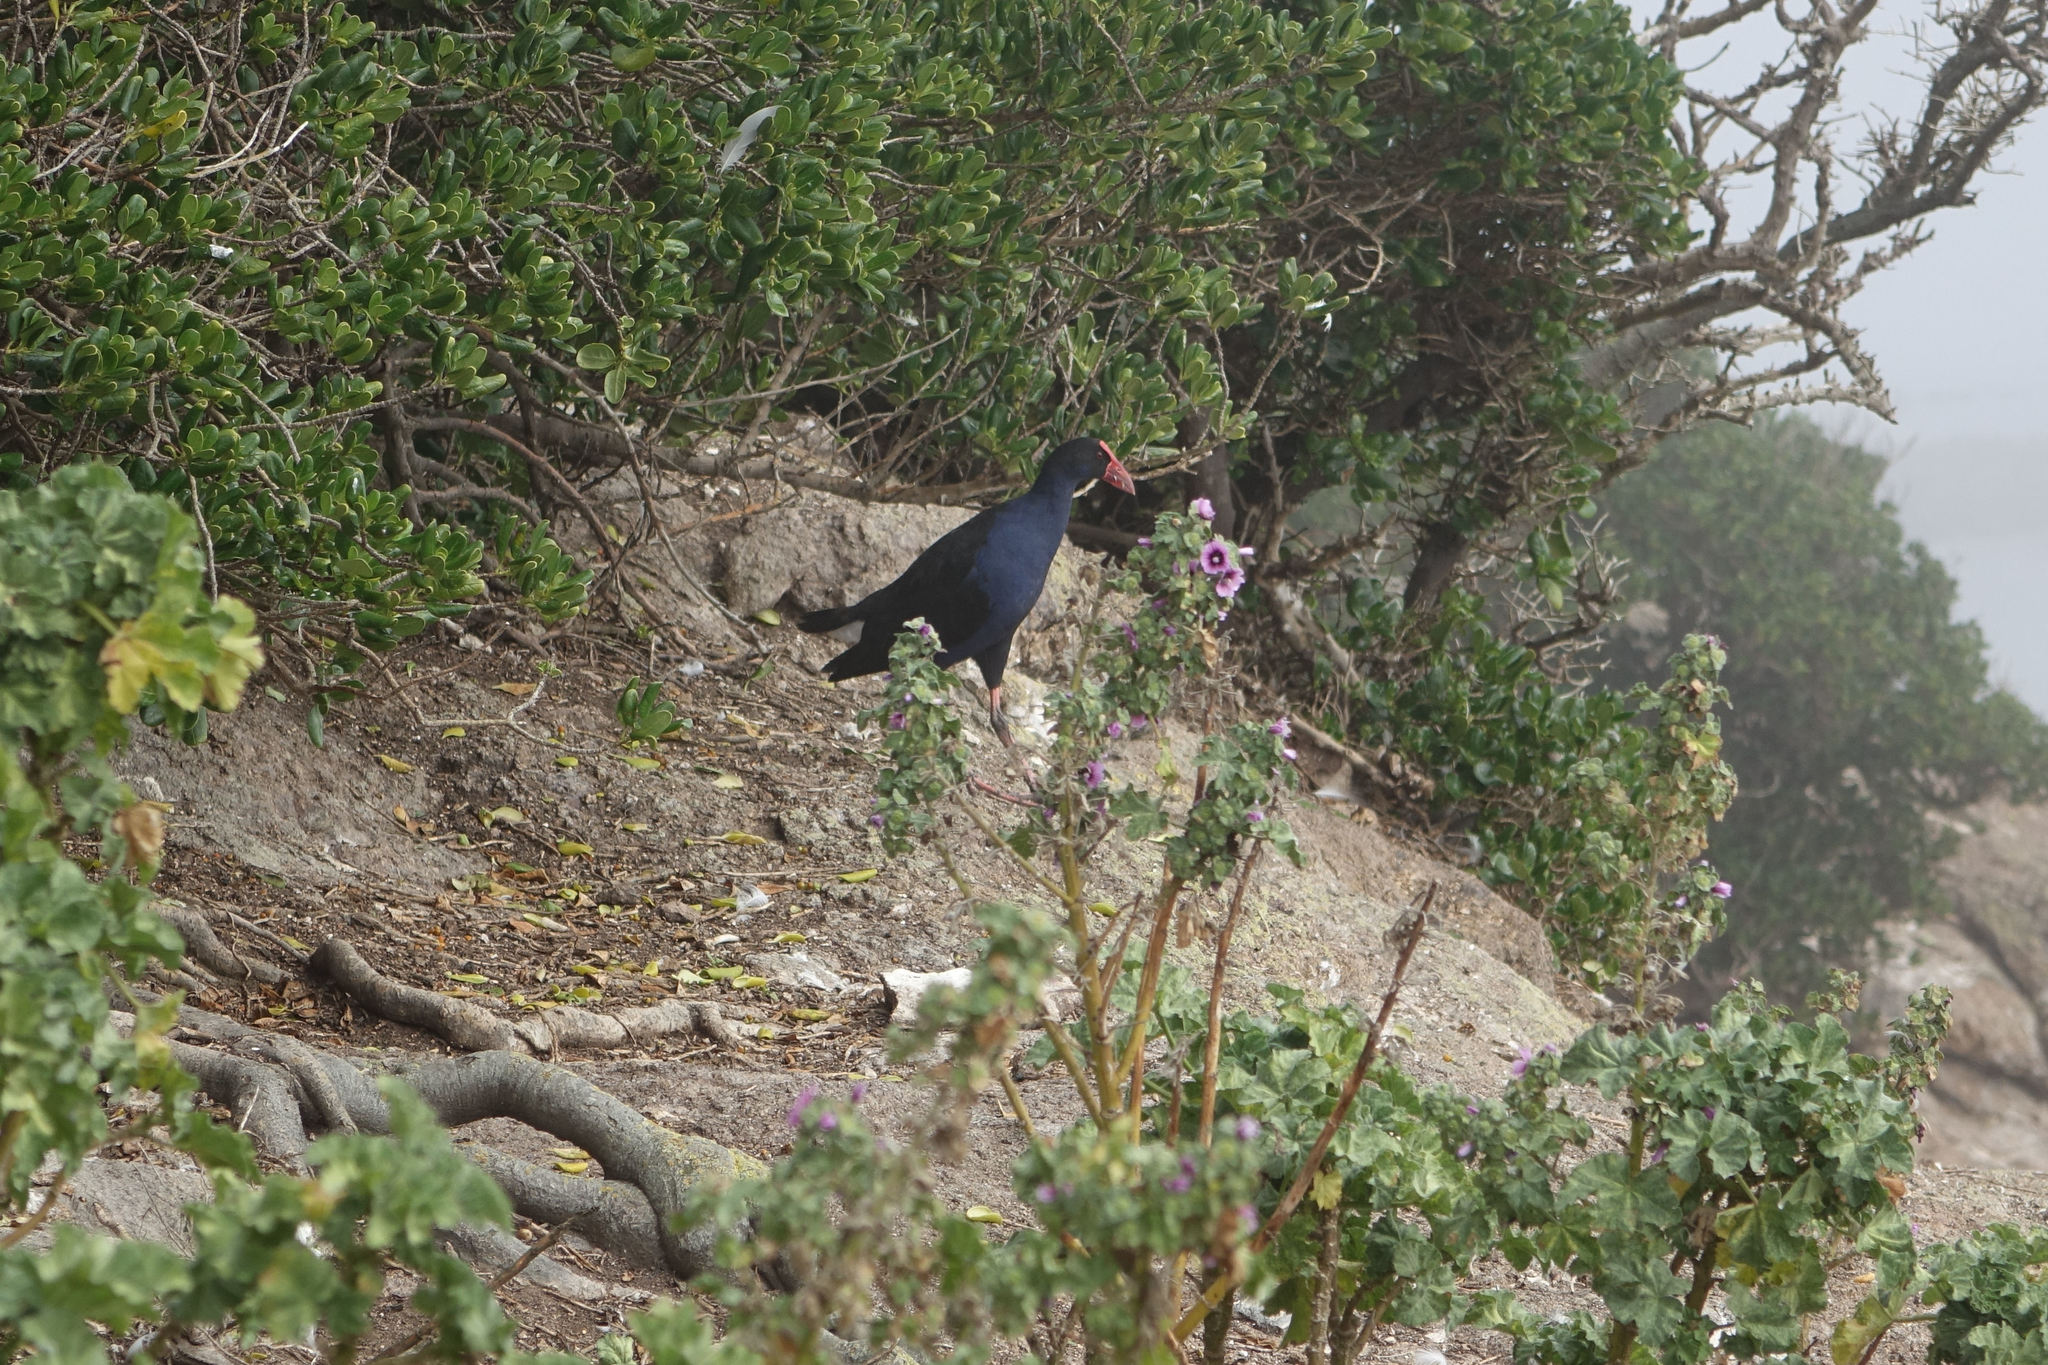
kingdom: Animalia
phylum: Chordata
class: Aves
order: Gruiformes
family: Rallidae
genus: Porphyrio
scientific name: Porphyrio melanotus
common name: Australasian swamphen
